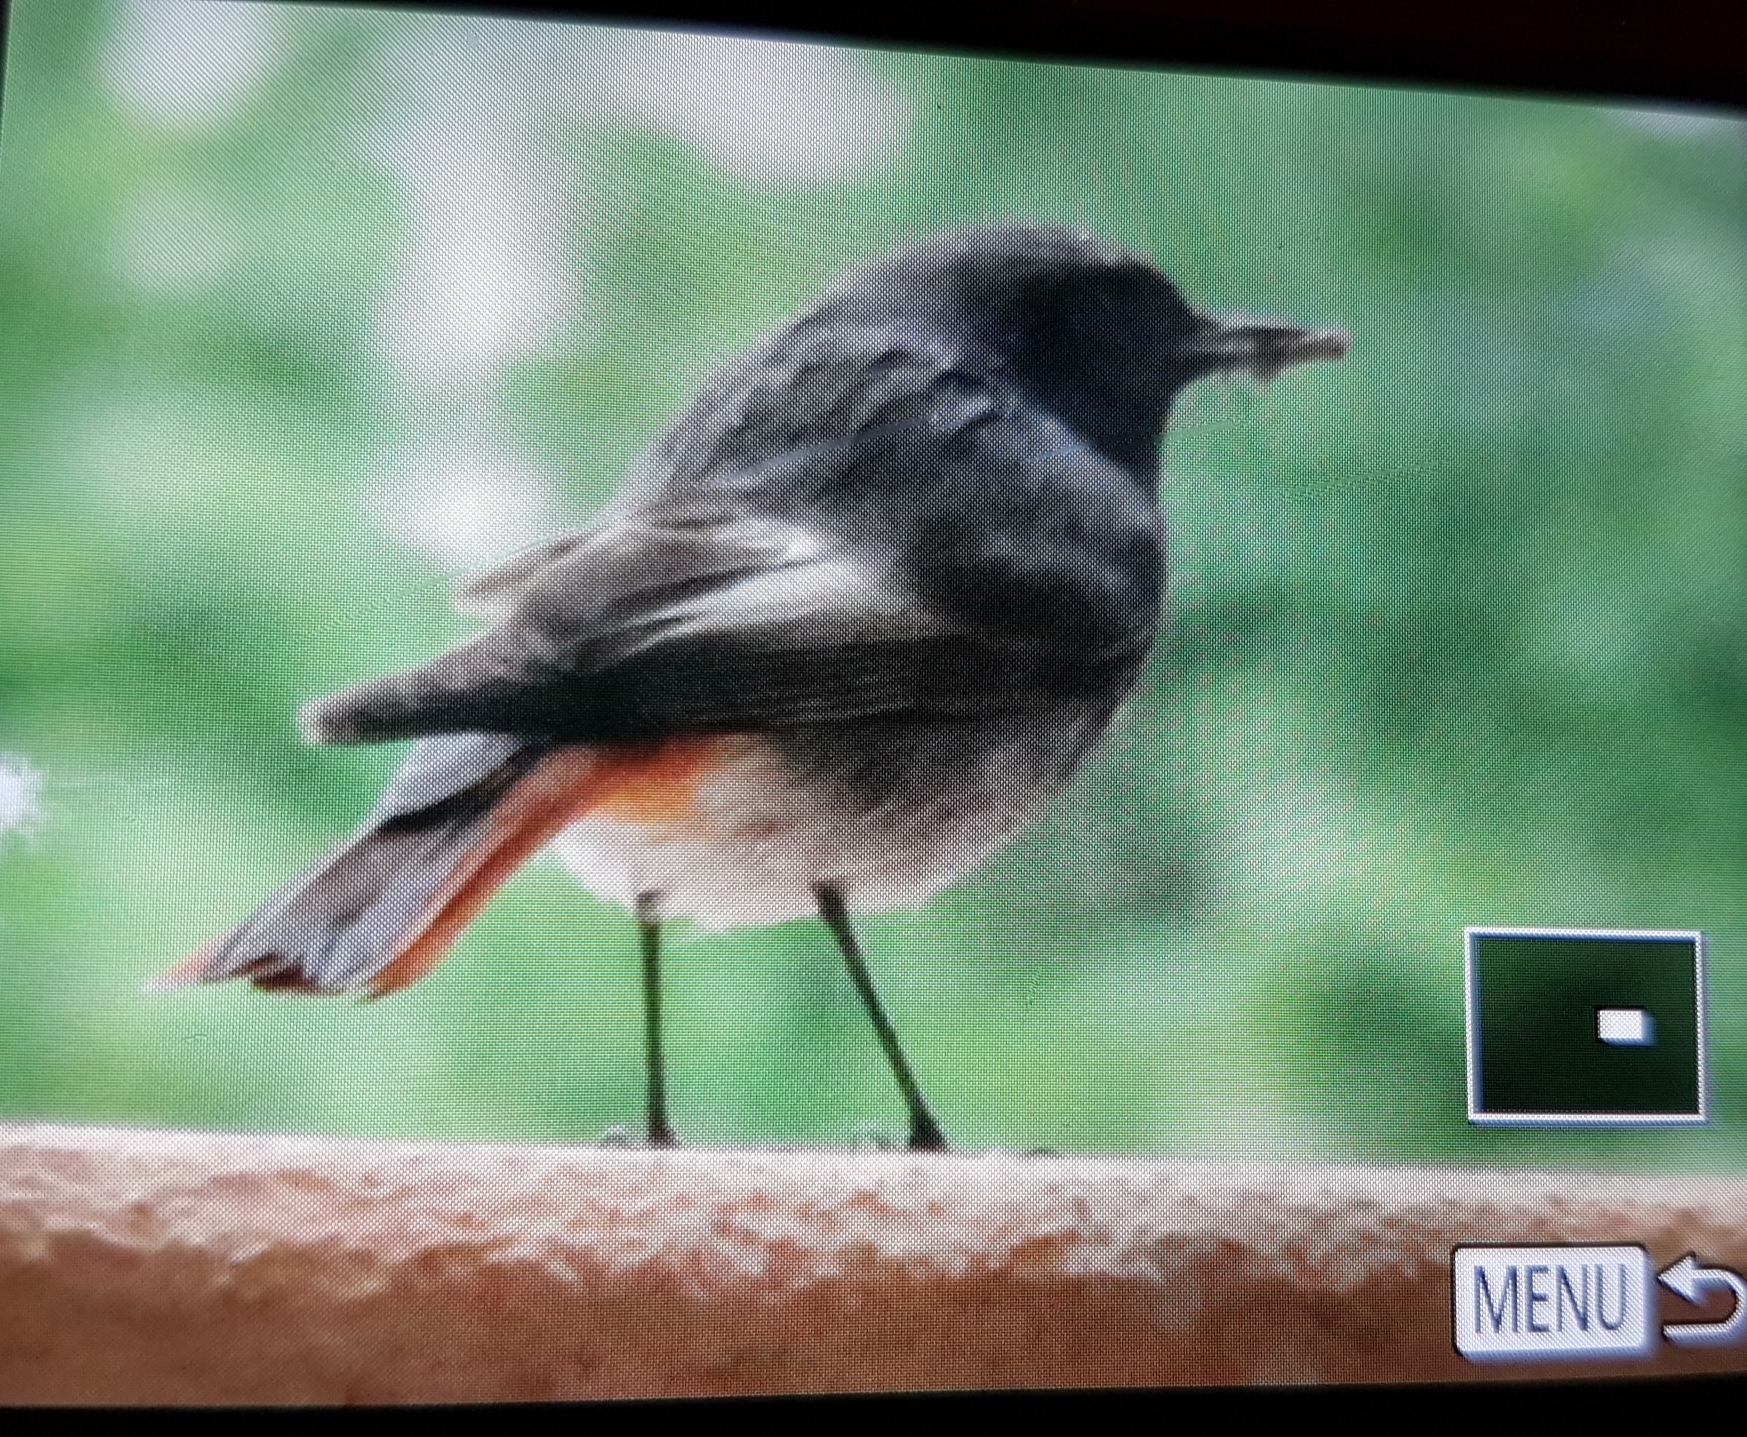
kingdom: Animalia
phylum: Chordata
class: Aves
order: Passeriformes
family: Muscicapidae
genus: Phoenicurus
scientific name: Phoenicurus ochruros
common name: Black redstart
